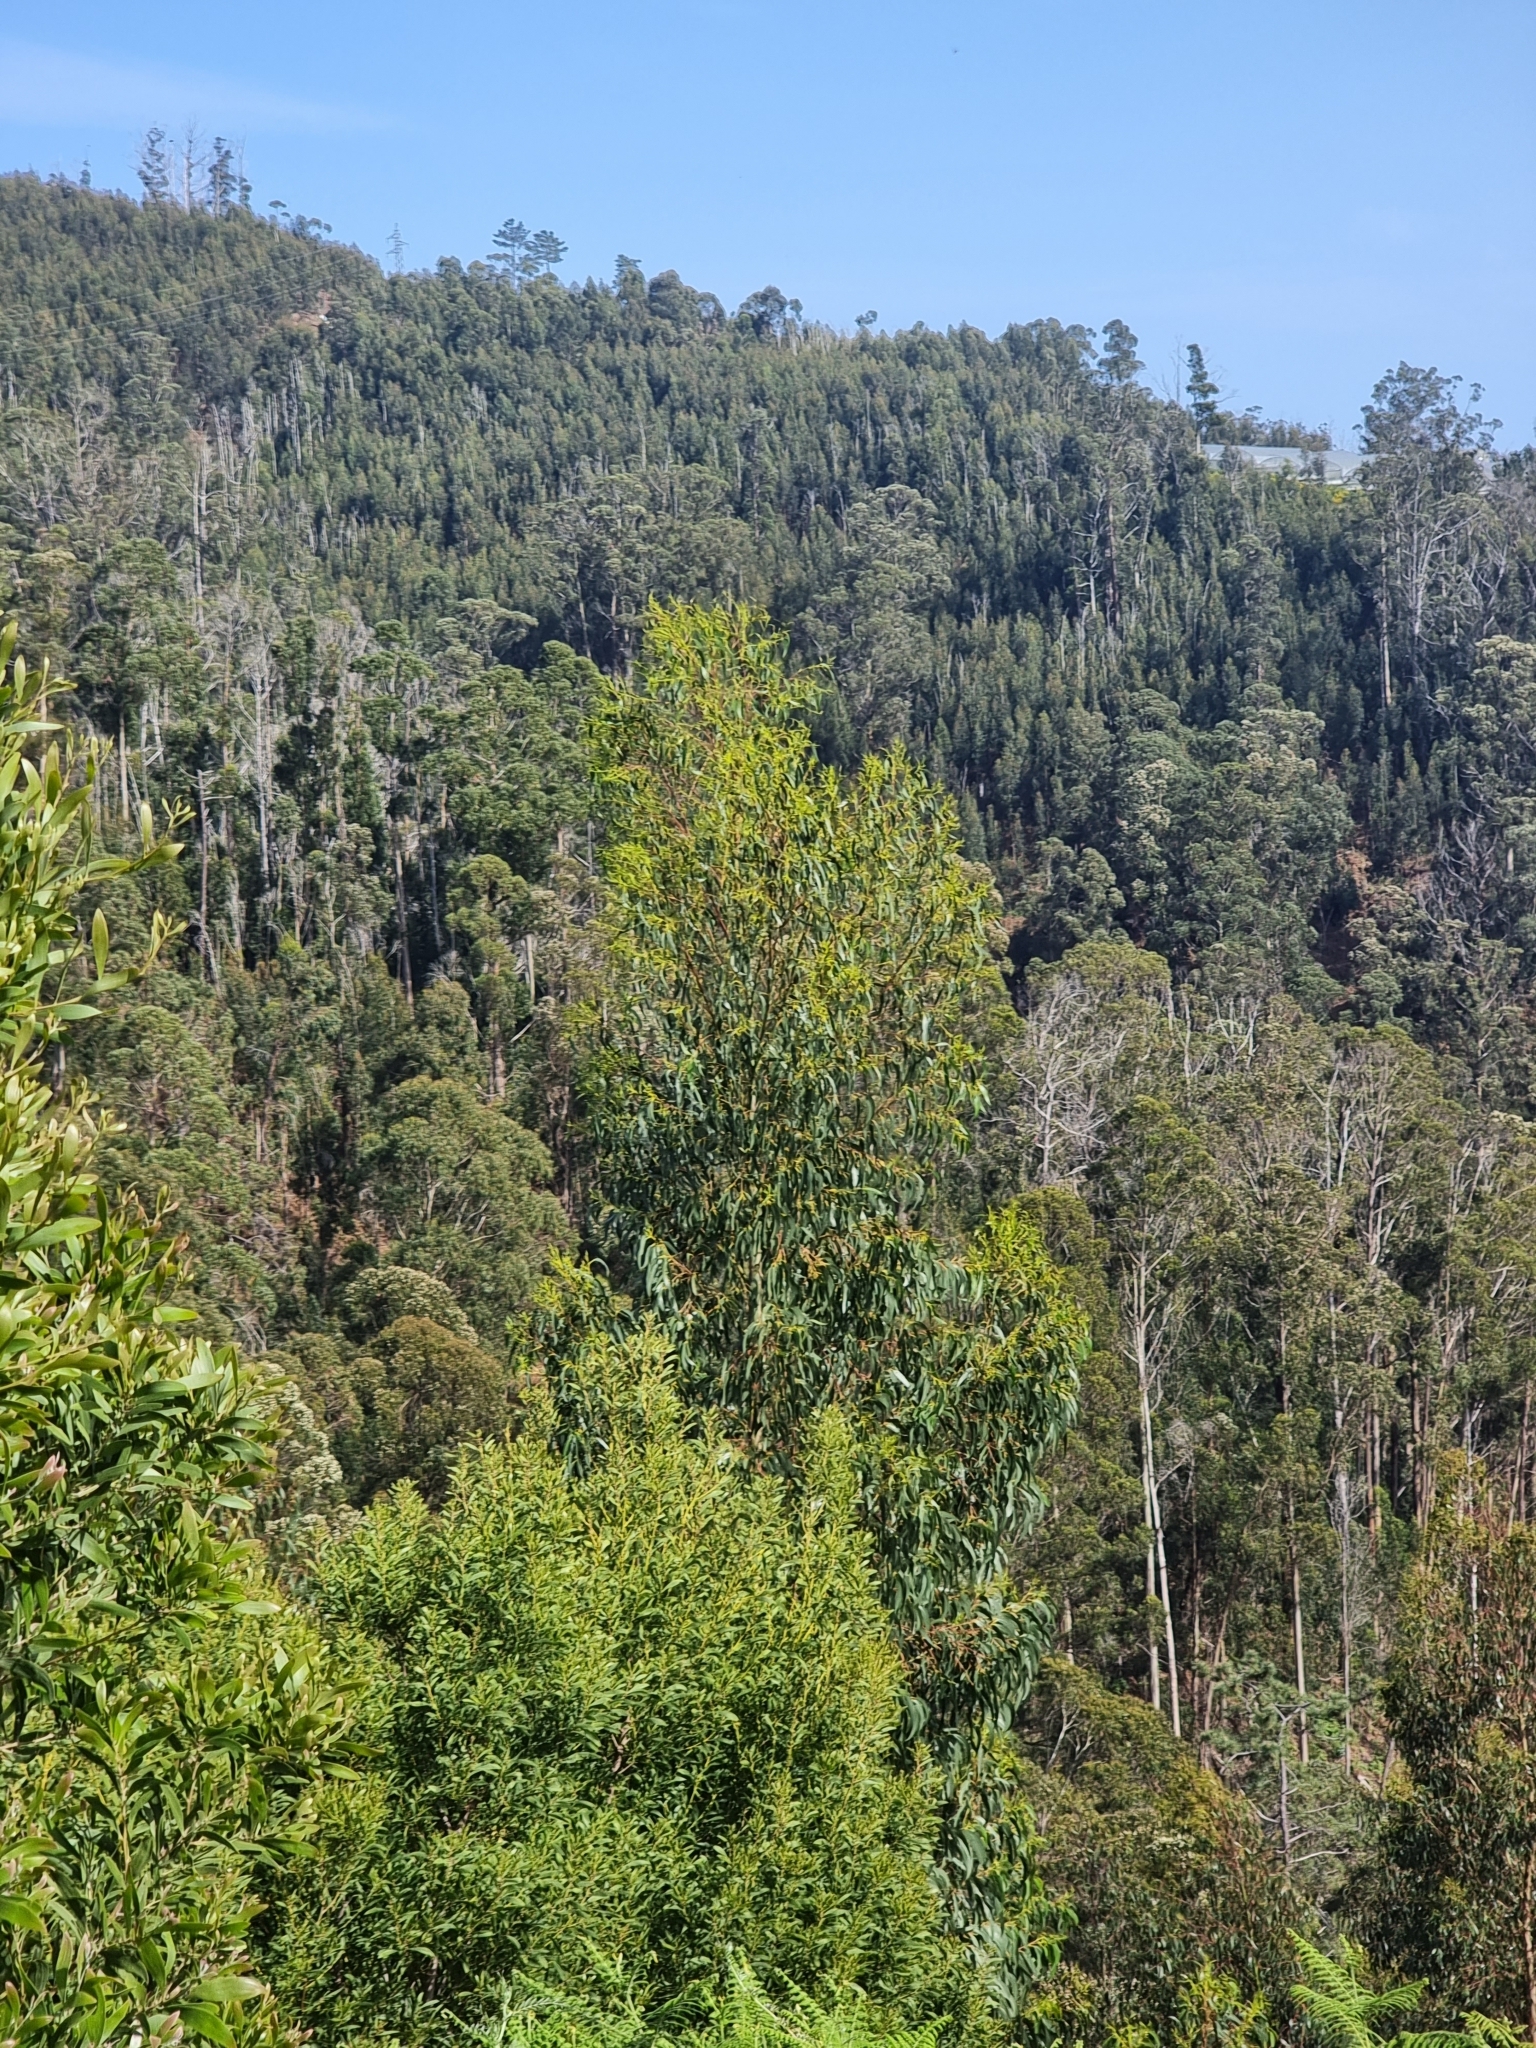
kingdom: Plantae
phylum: Tracheophyta
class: Magnoliopsida
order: Myrtales
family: Myrtaceae
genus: Eucalyptus
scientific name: Eucalyptus globulus
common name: Southern blue-gum
